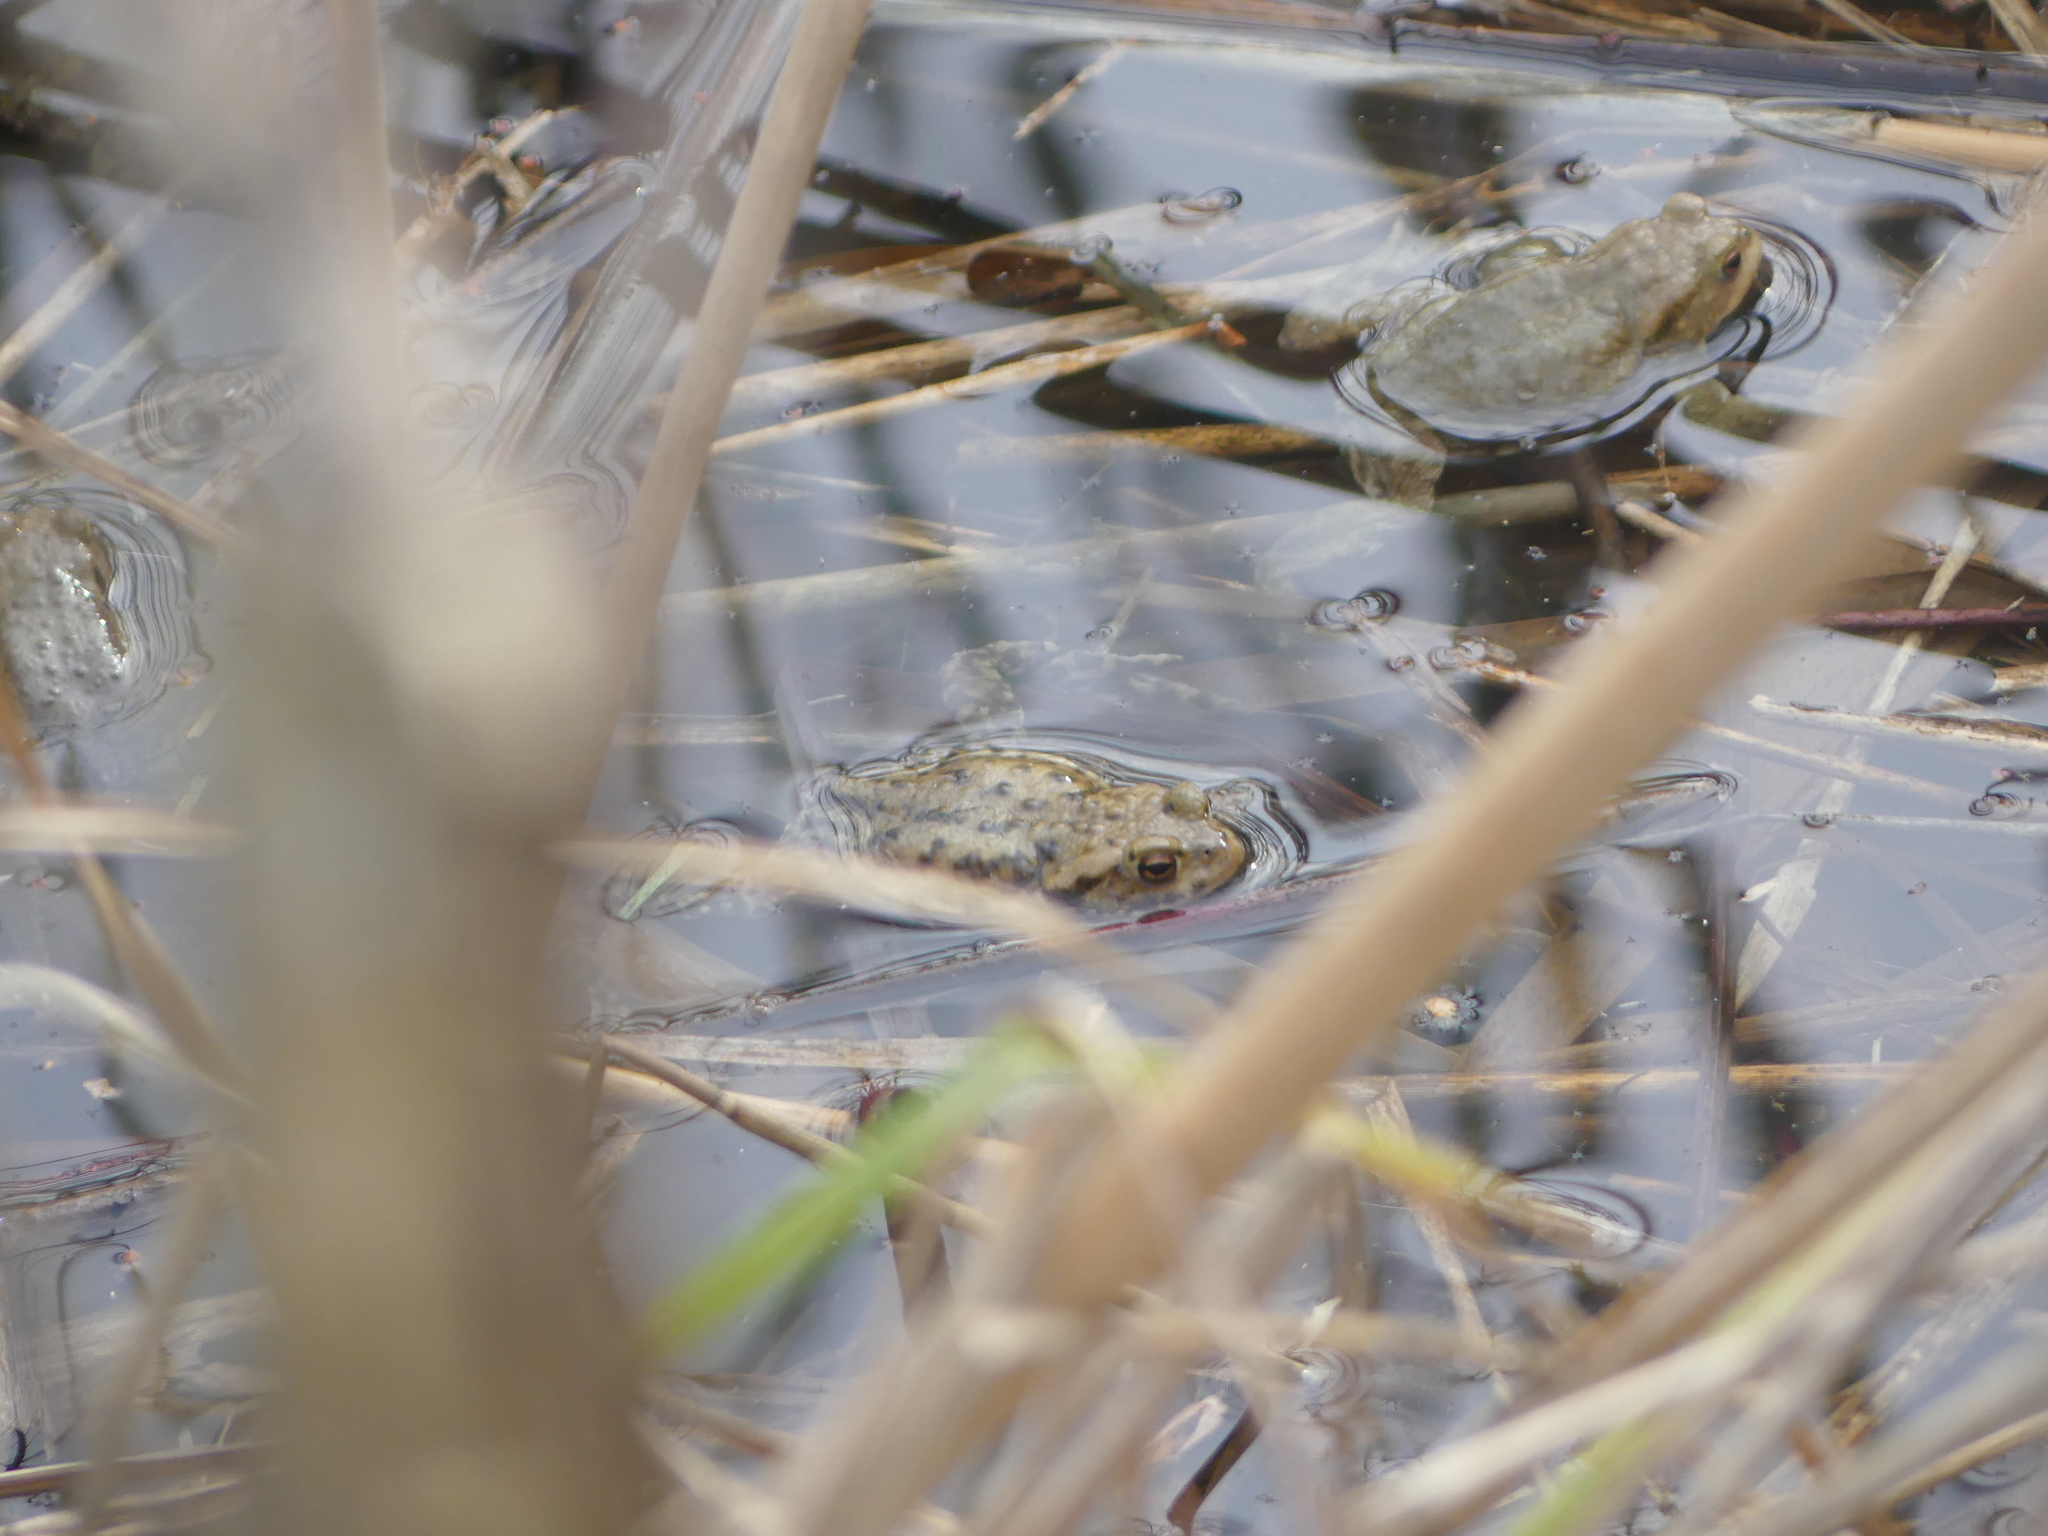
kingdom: Animalia
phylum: Chordata
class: Amphibia
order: Anura
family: Bufonidae
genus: Bufo
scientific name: Bufo bufo
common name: Common toad
